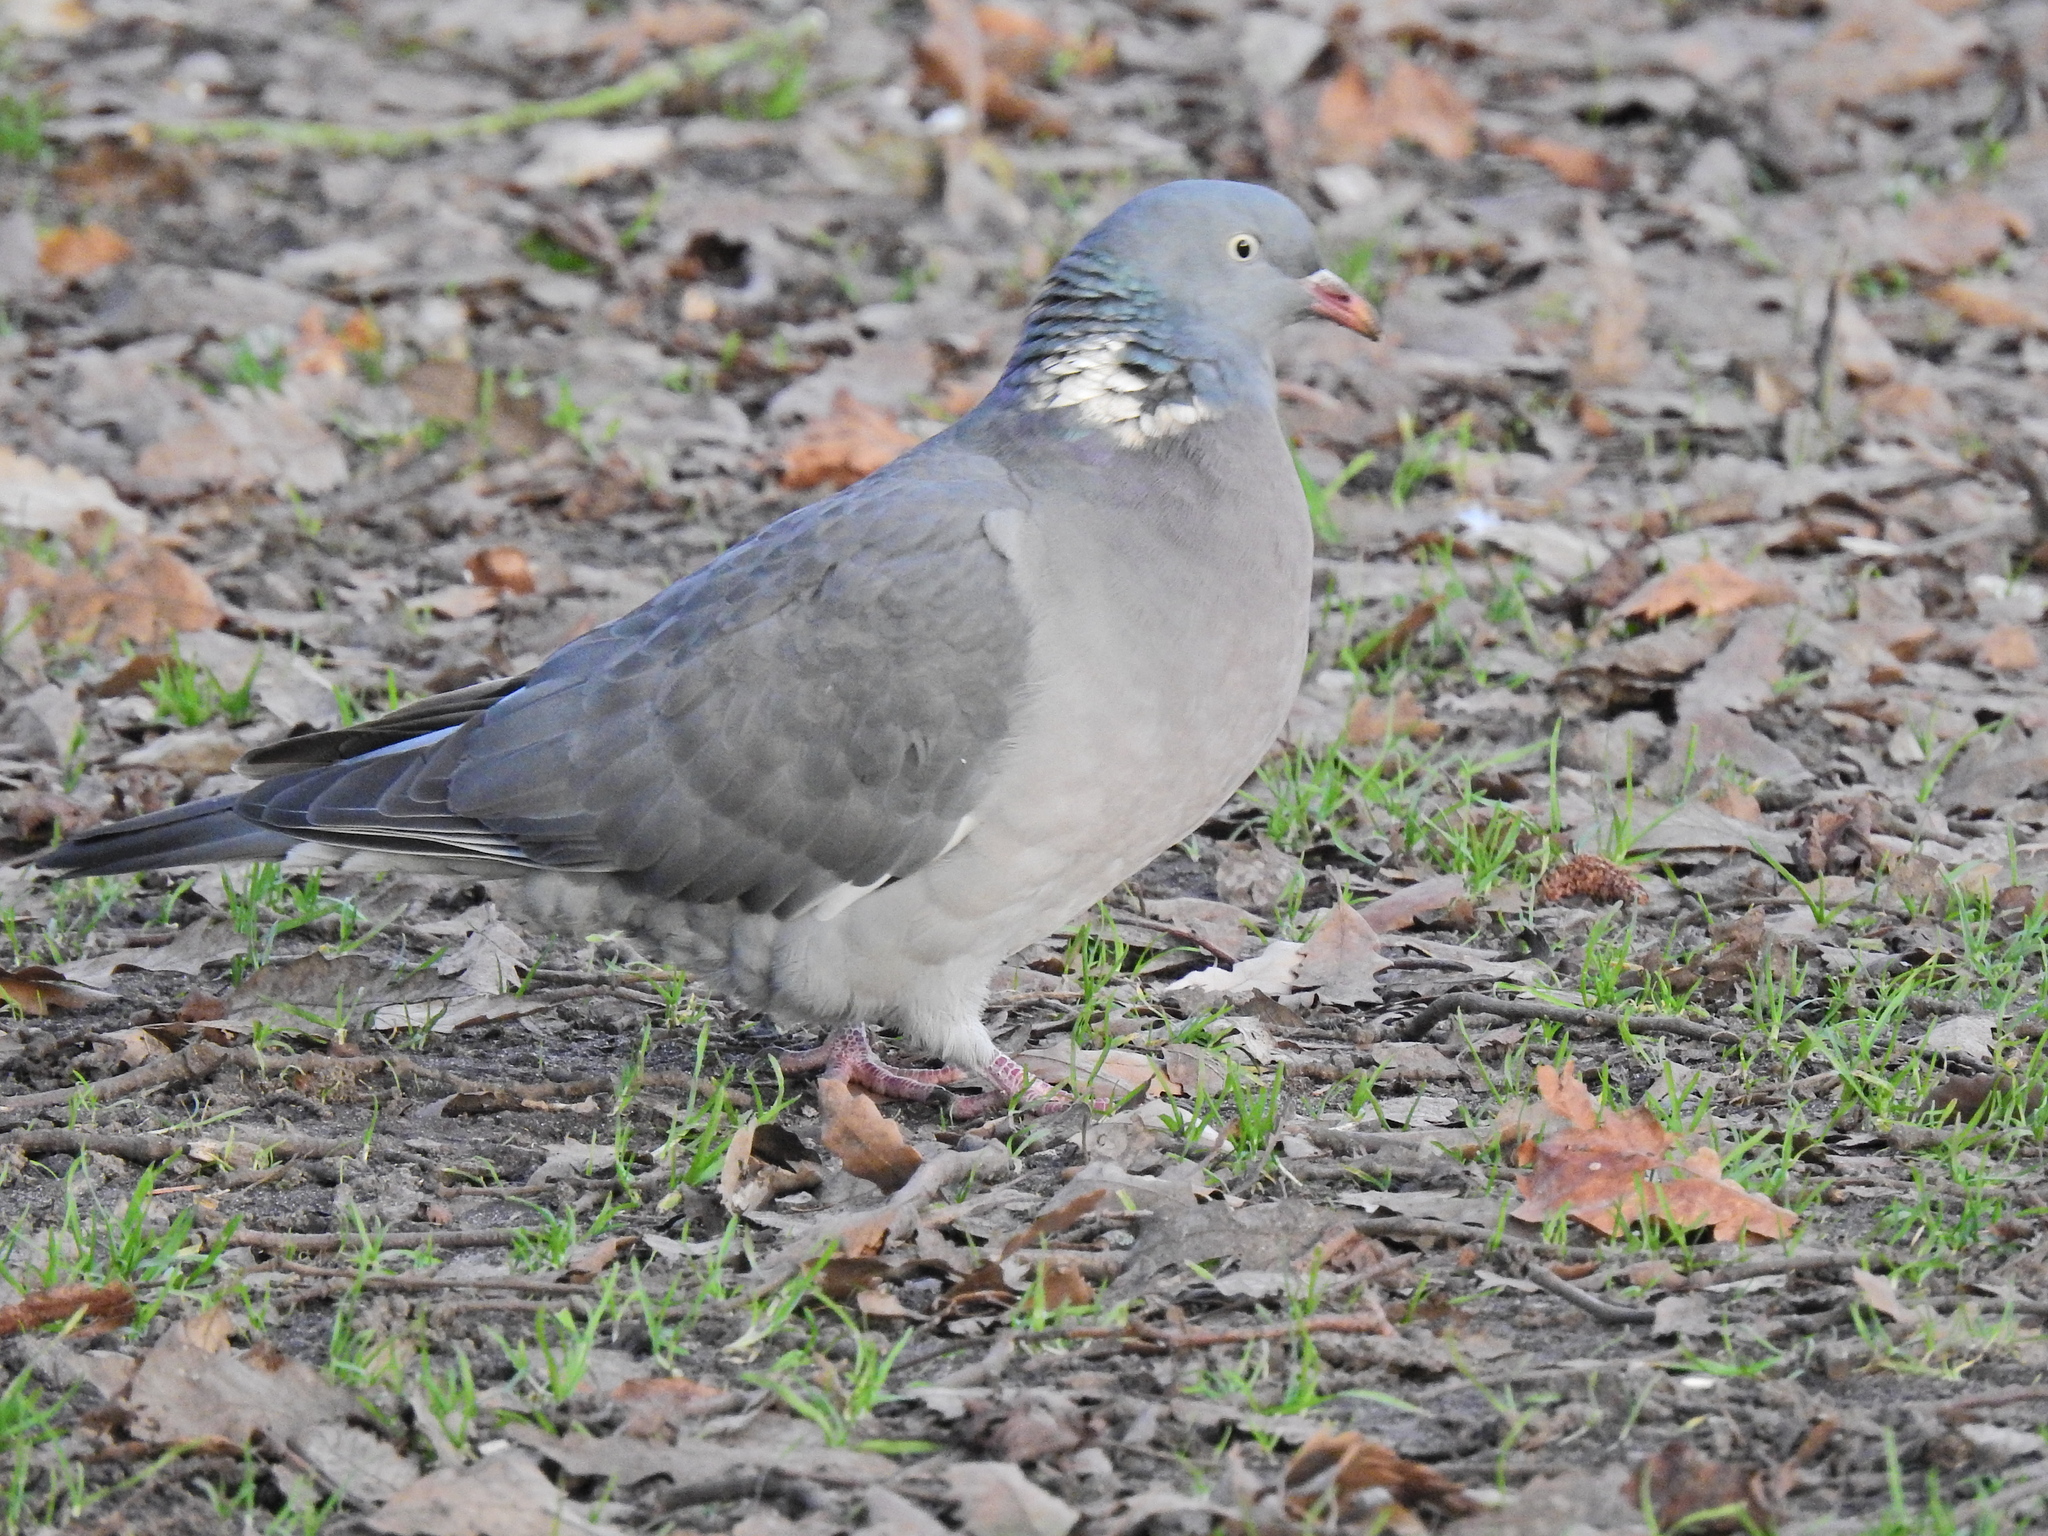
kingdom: Animalia
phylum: Chordata
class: Aves
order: Columbiformes
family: Columbidae
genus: Columba
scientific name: Columba palumbus
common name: Common wood pigeon
